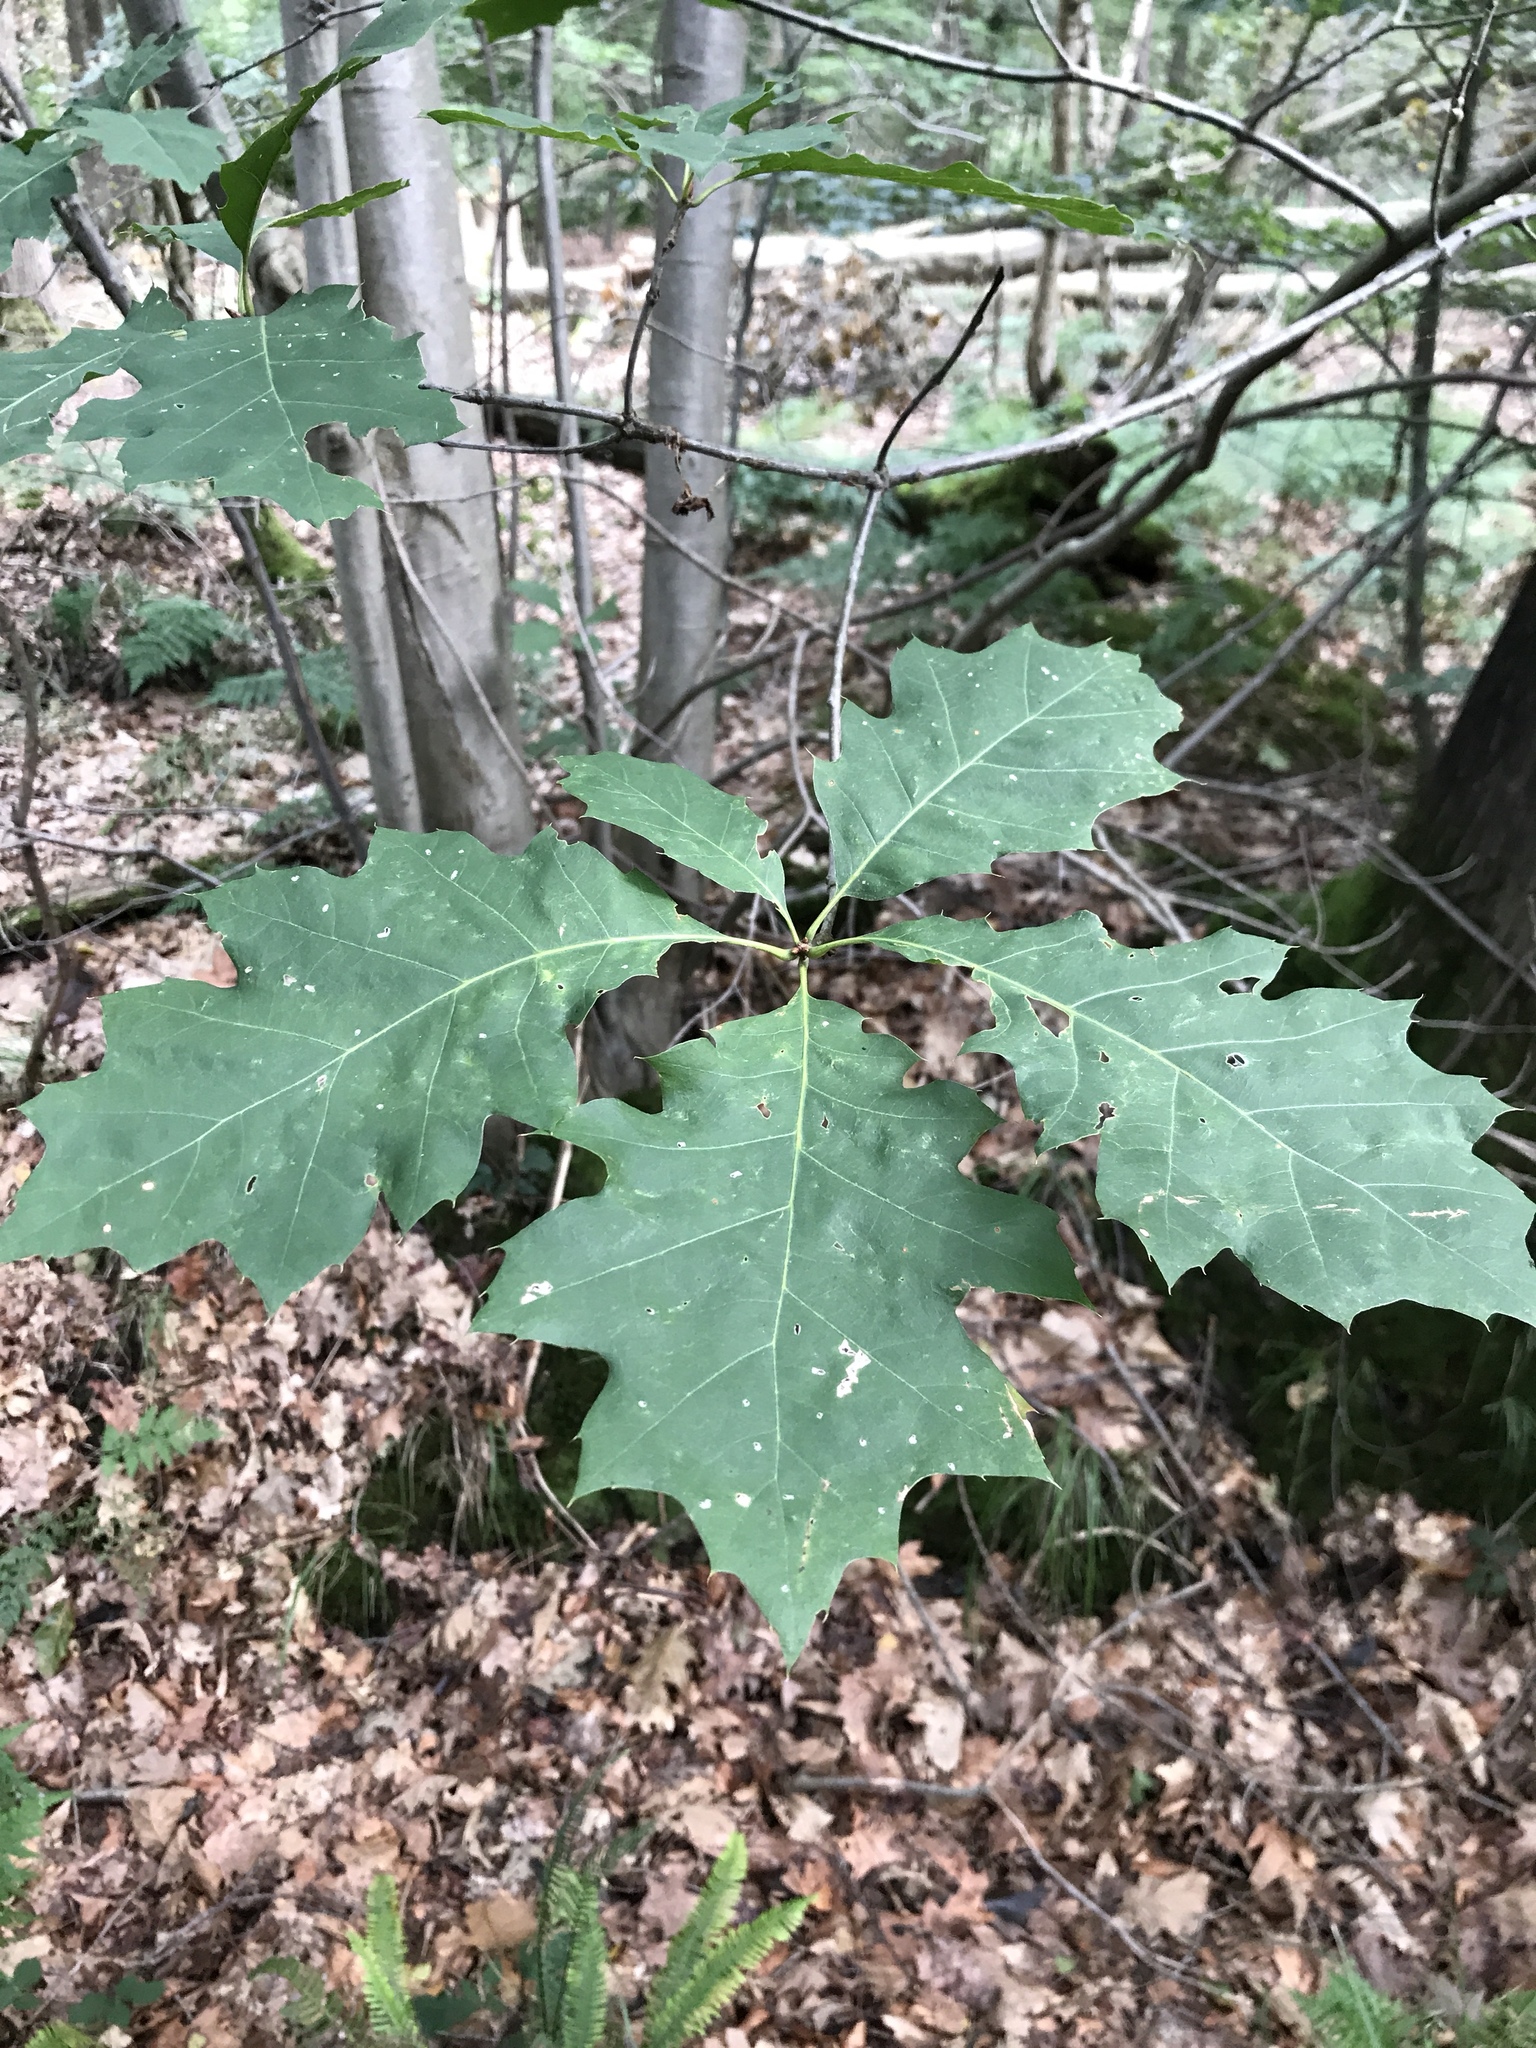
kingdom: Plantae
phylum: Tracheophyta
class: Magnoliopsida
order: Fagales
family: Fagaceae
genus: Quercus
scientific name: Quercus rubra
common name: Red oak
